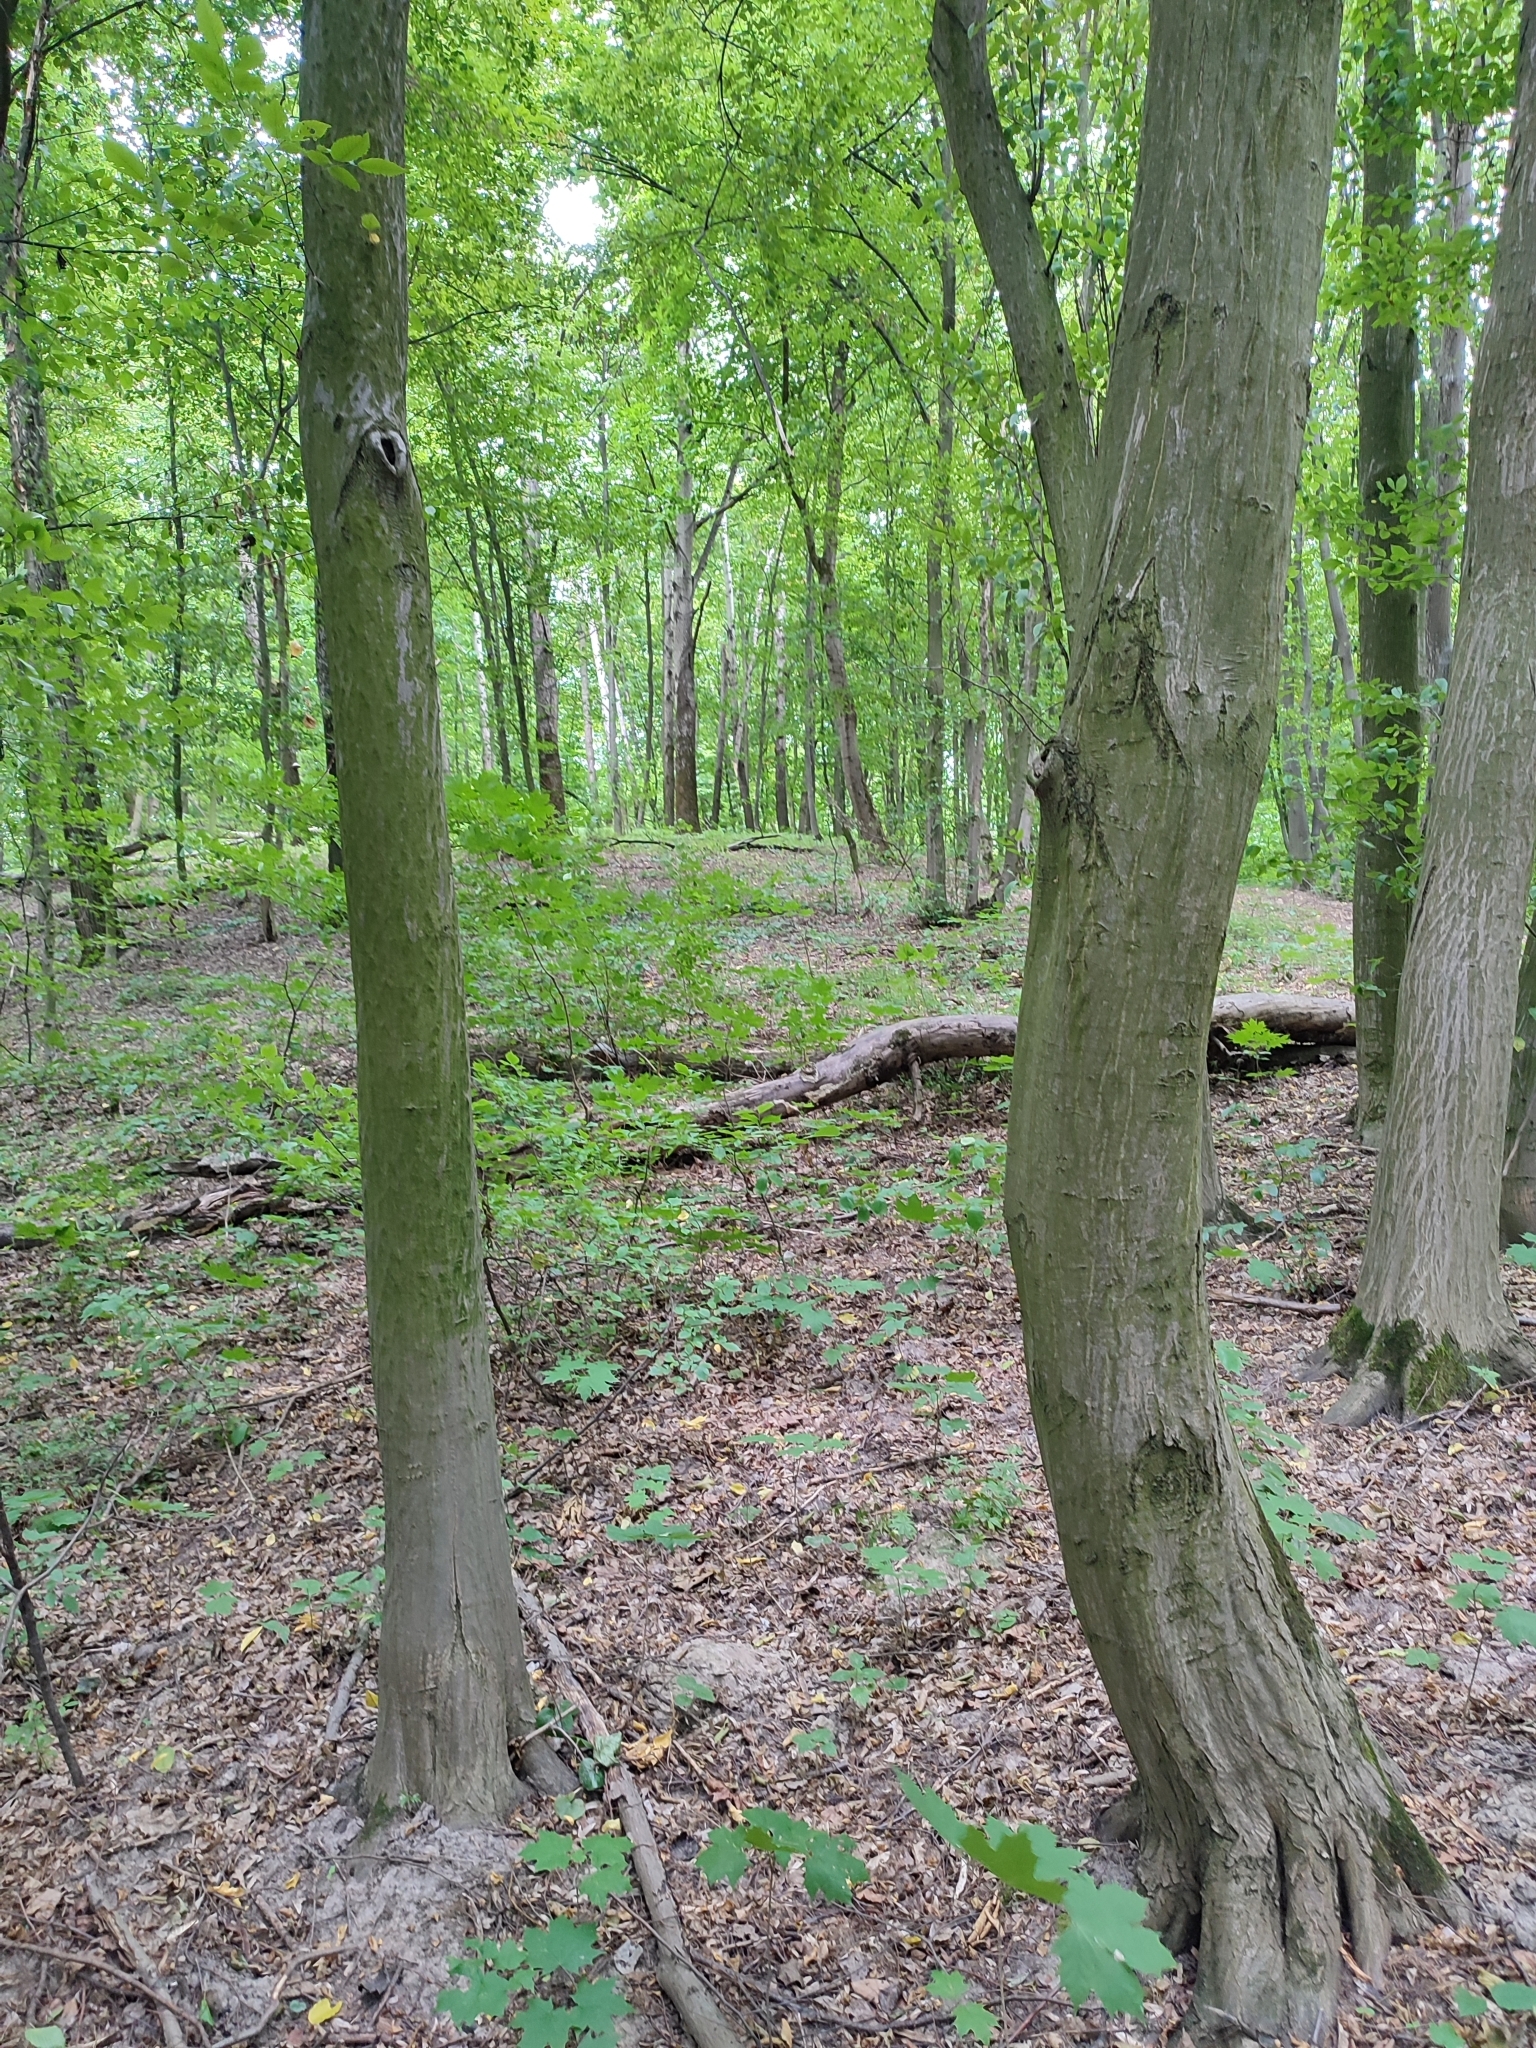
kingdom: Plantae
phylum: Tracheophyta
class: Magnoliopsida
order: Fagales
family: Betulaceae
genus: Carpinus
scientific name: Carpinus betulus
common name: Hornbeam
